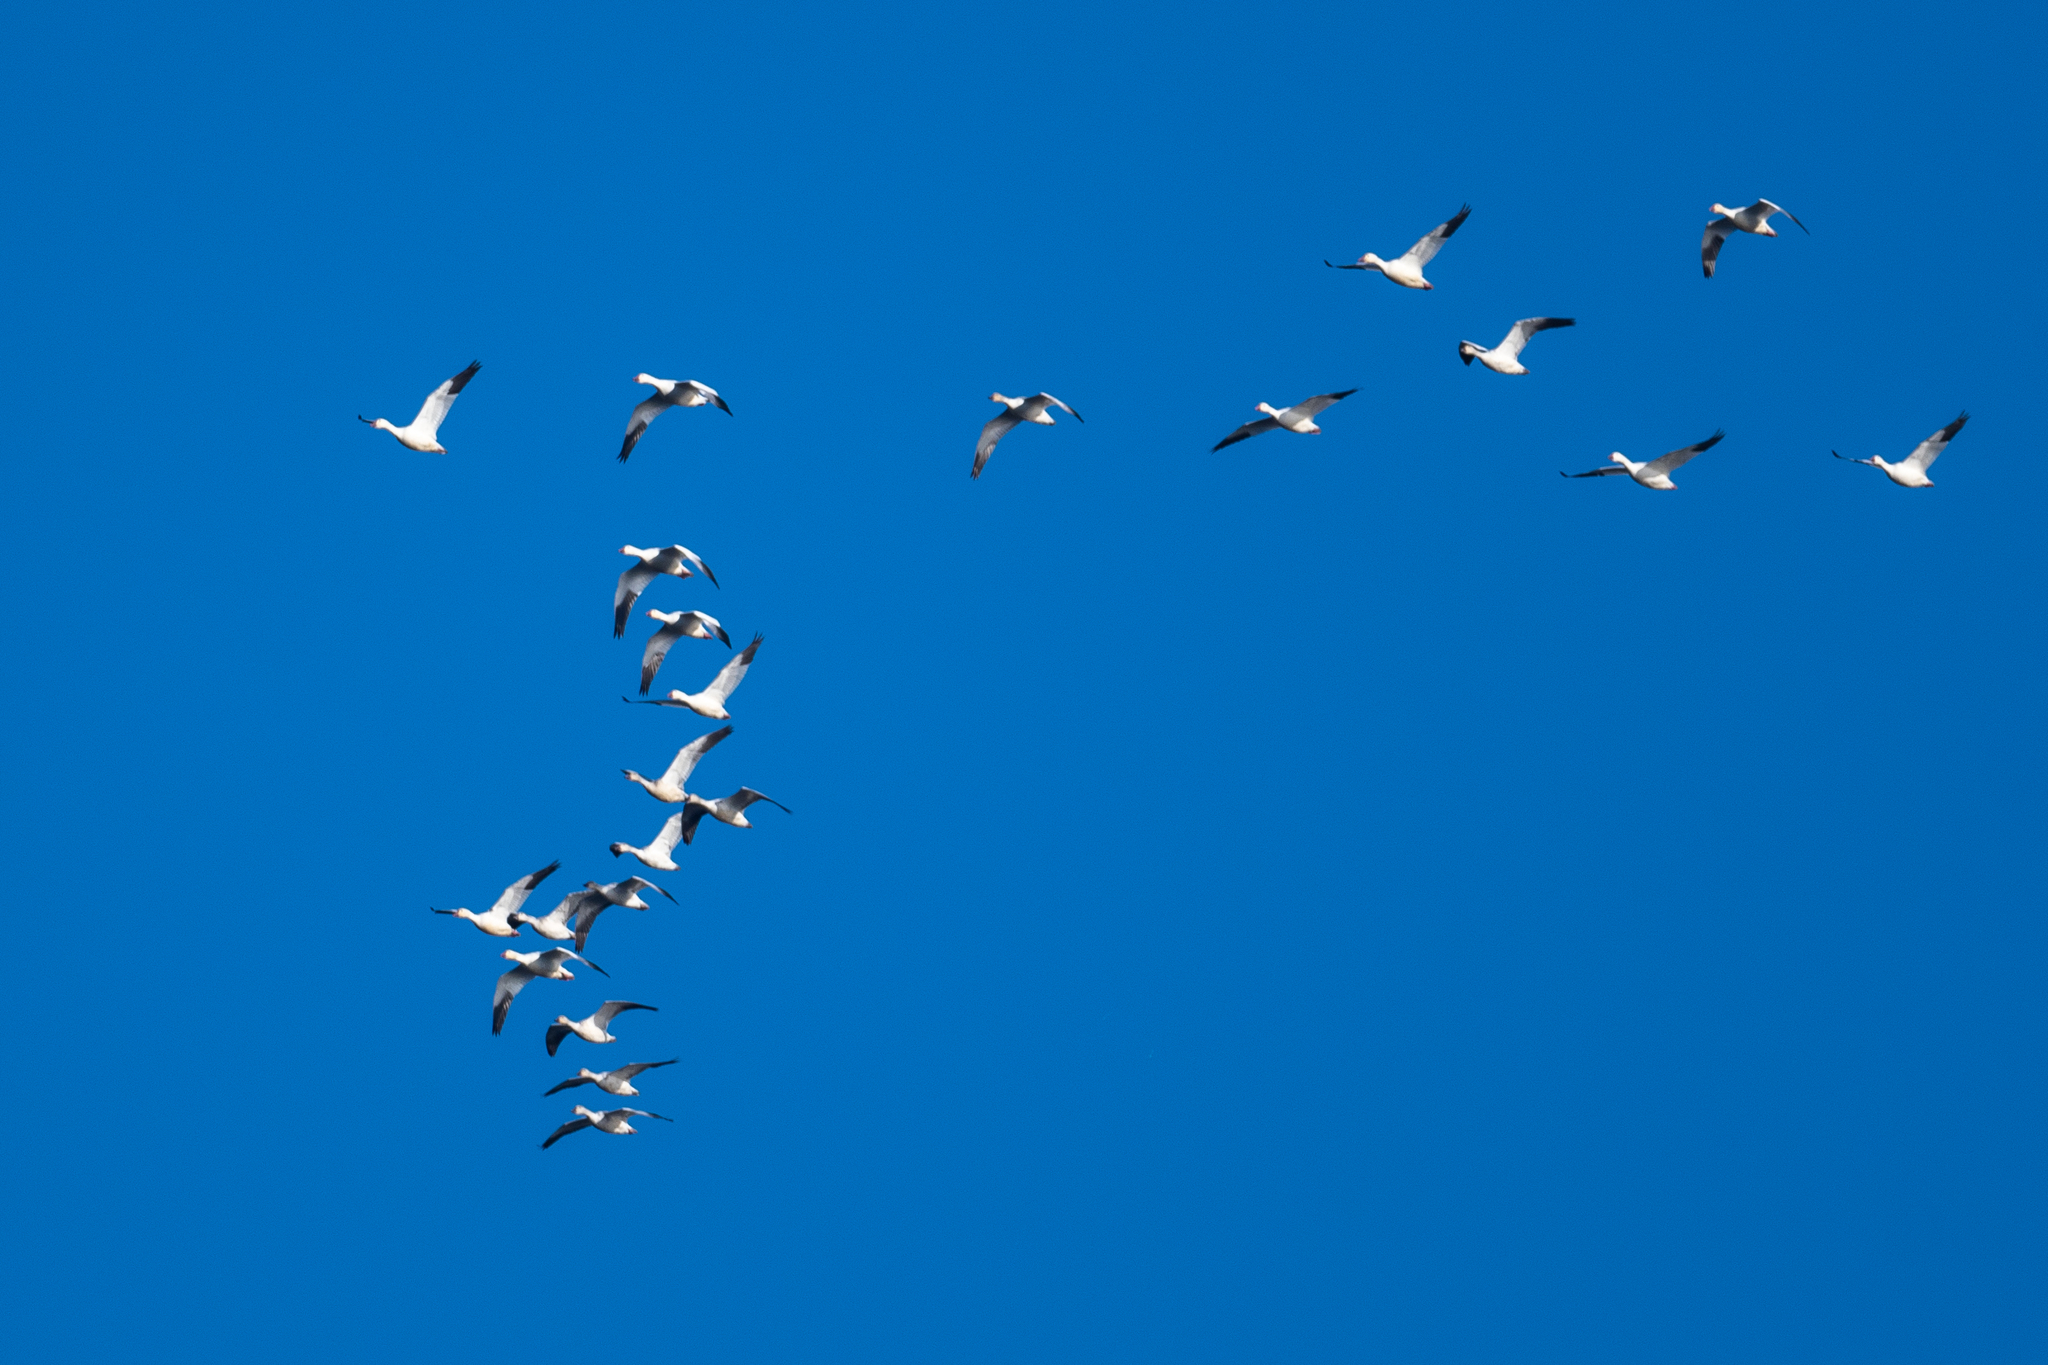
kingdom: Animalia
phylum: Chordata
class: Aves
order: Anseriformes
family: Anatidae
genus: Anser
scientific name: Anser caerulescens
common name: Snow goose
